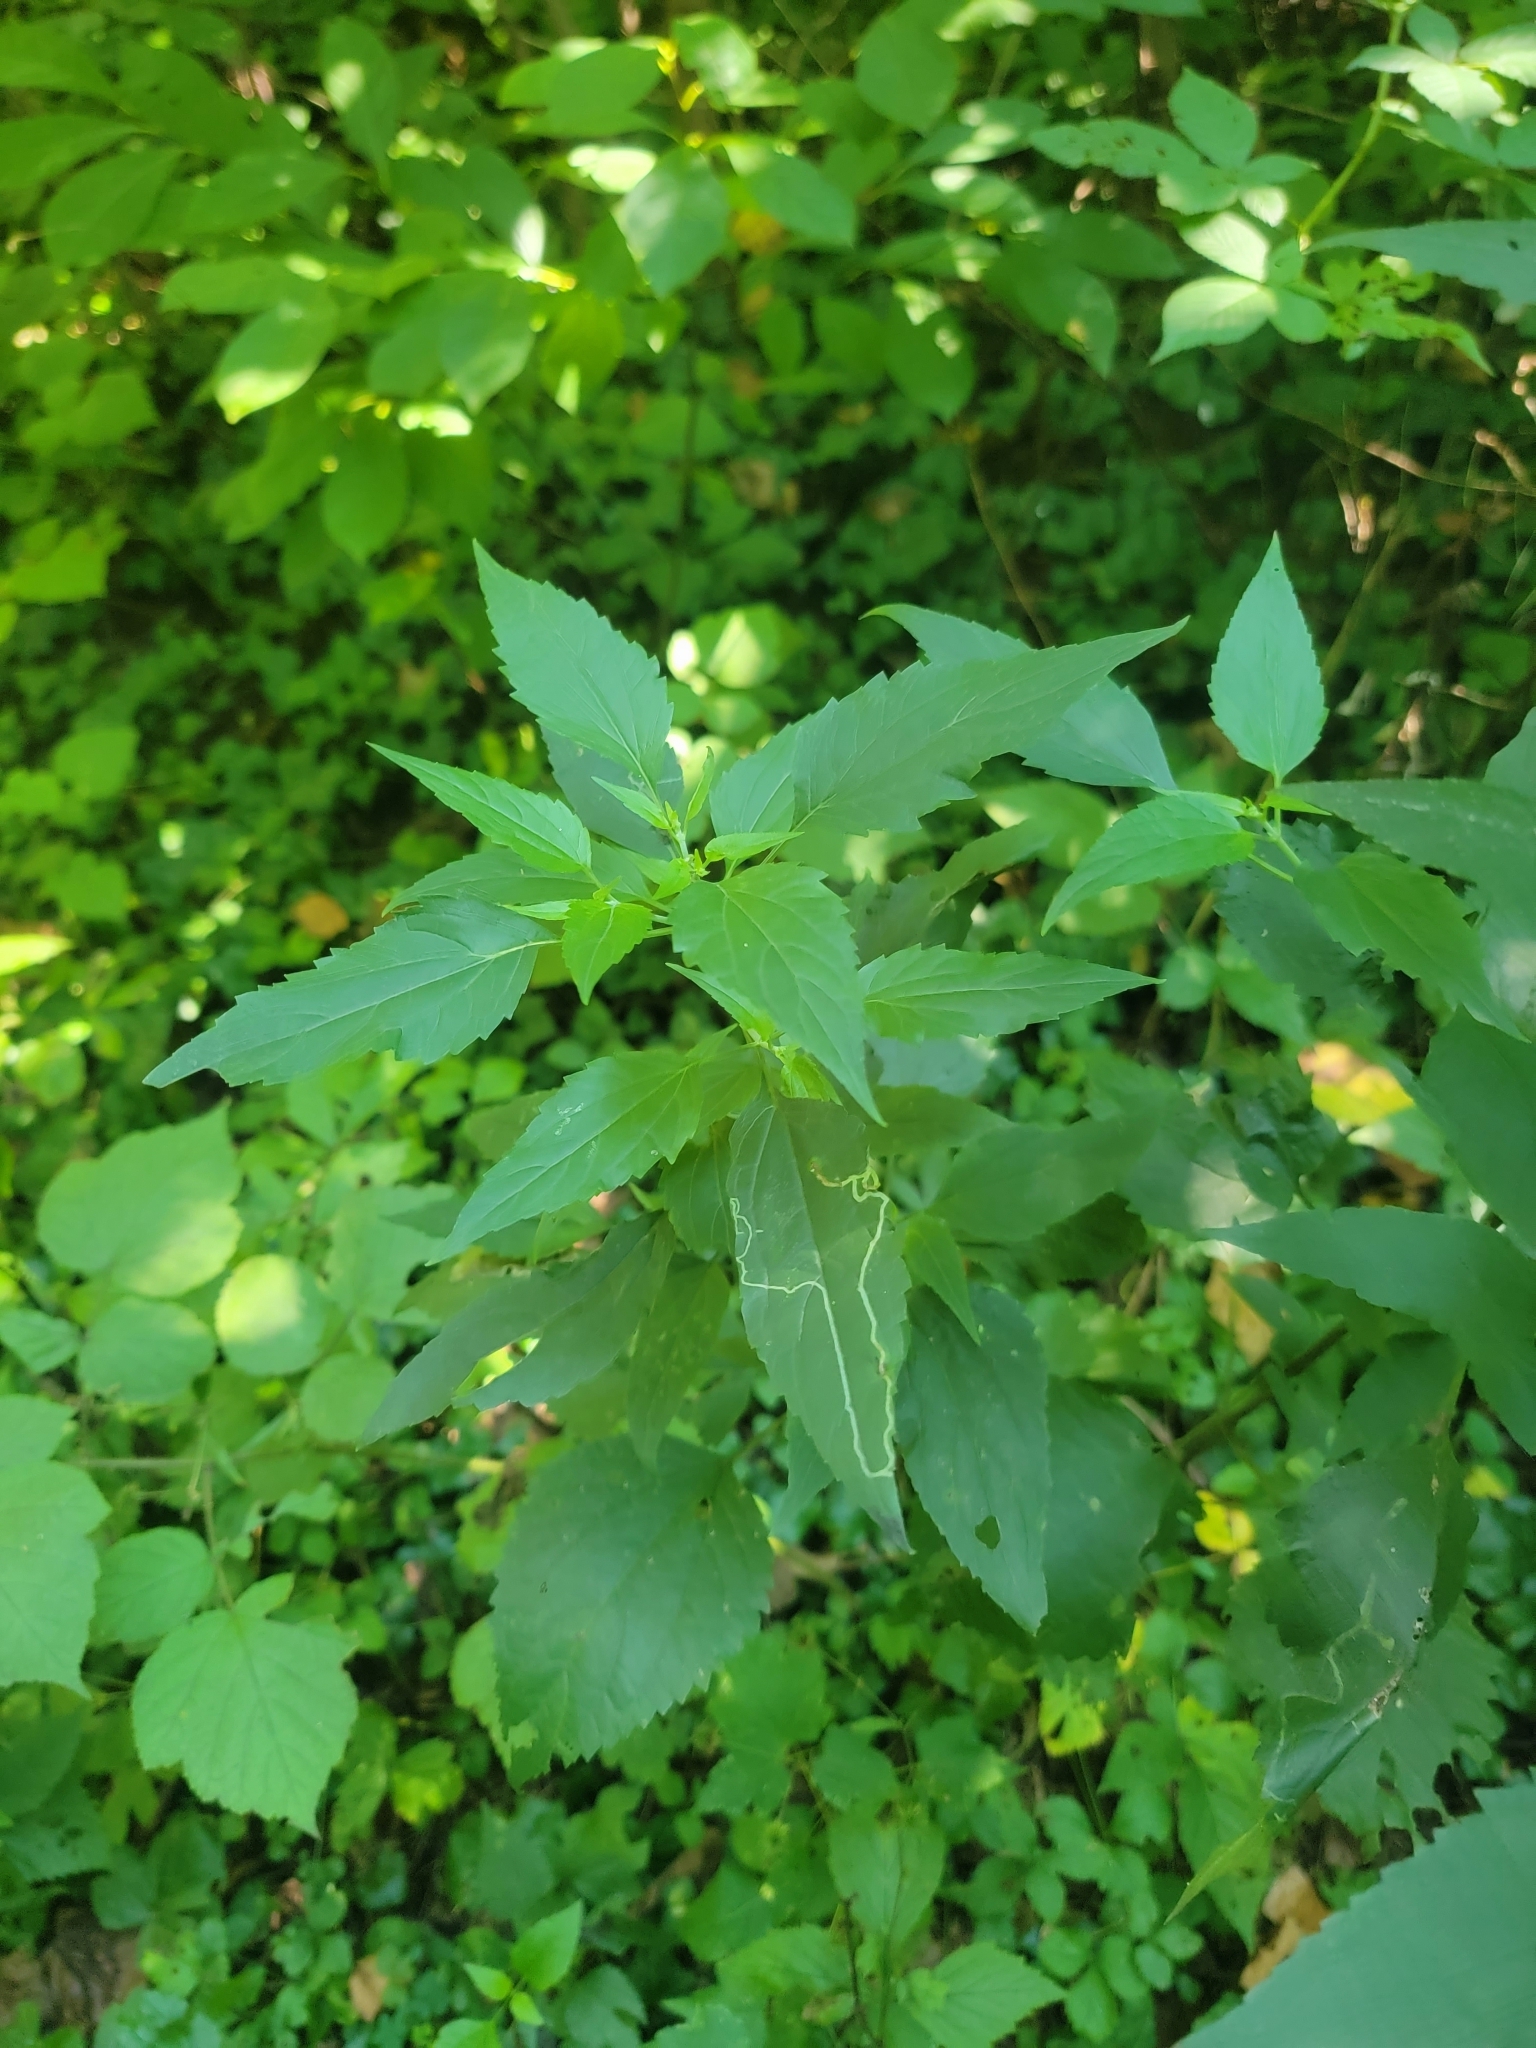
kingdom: Plantae
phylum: Tracheophyta
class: Magnoliopsida
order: Asterales
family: Asteraceae
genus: Ageratina
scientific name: Ageratina altissima
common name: White snakeroot
